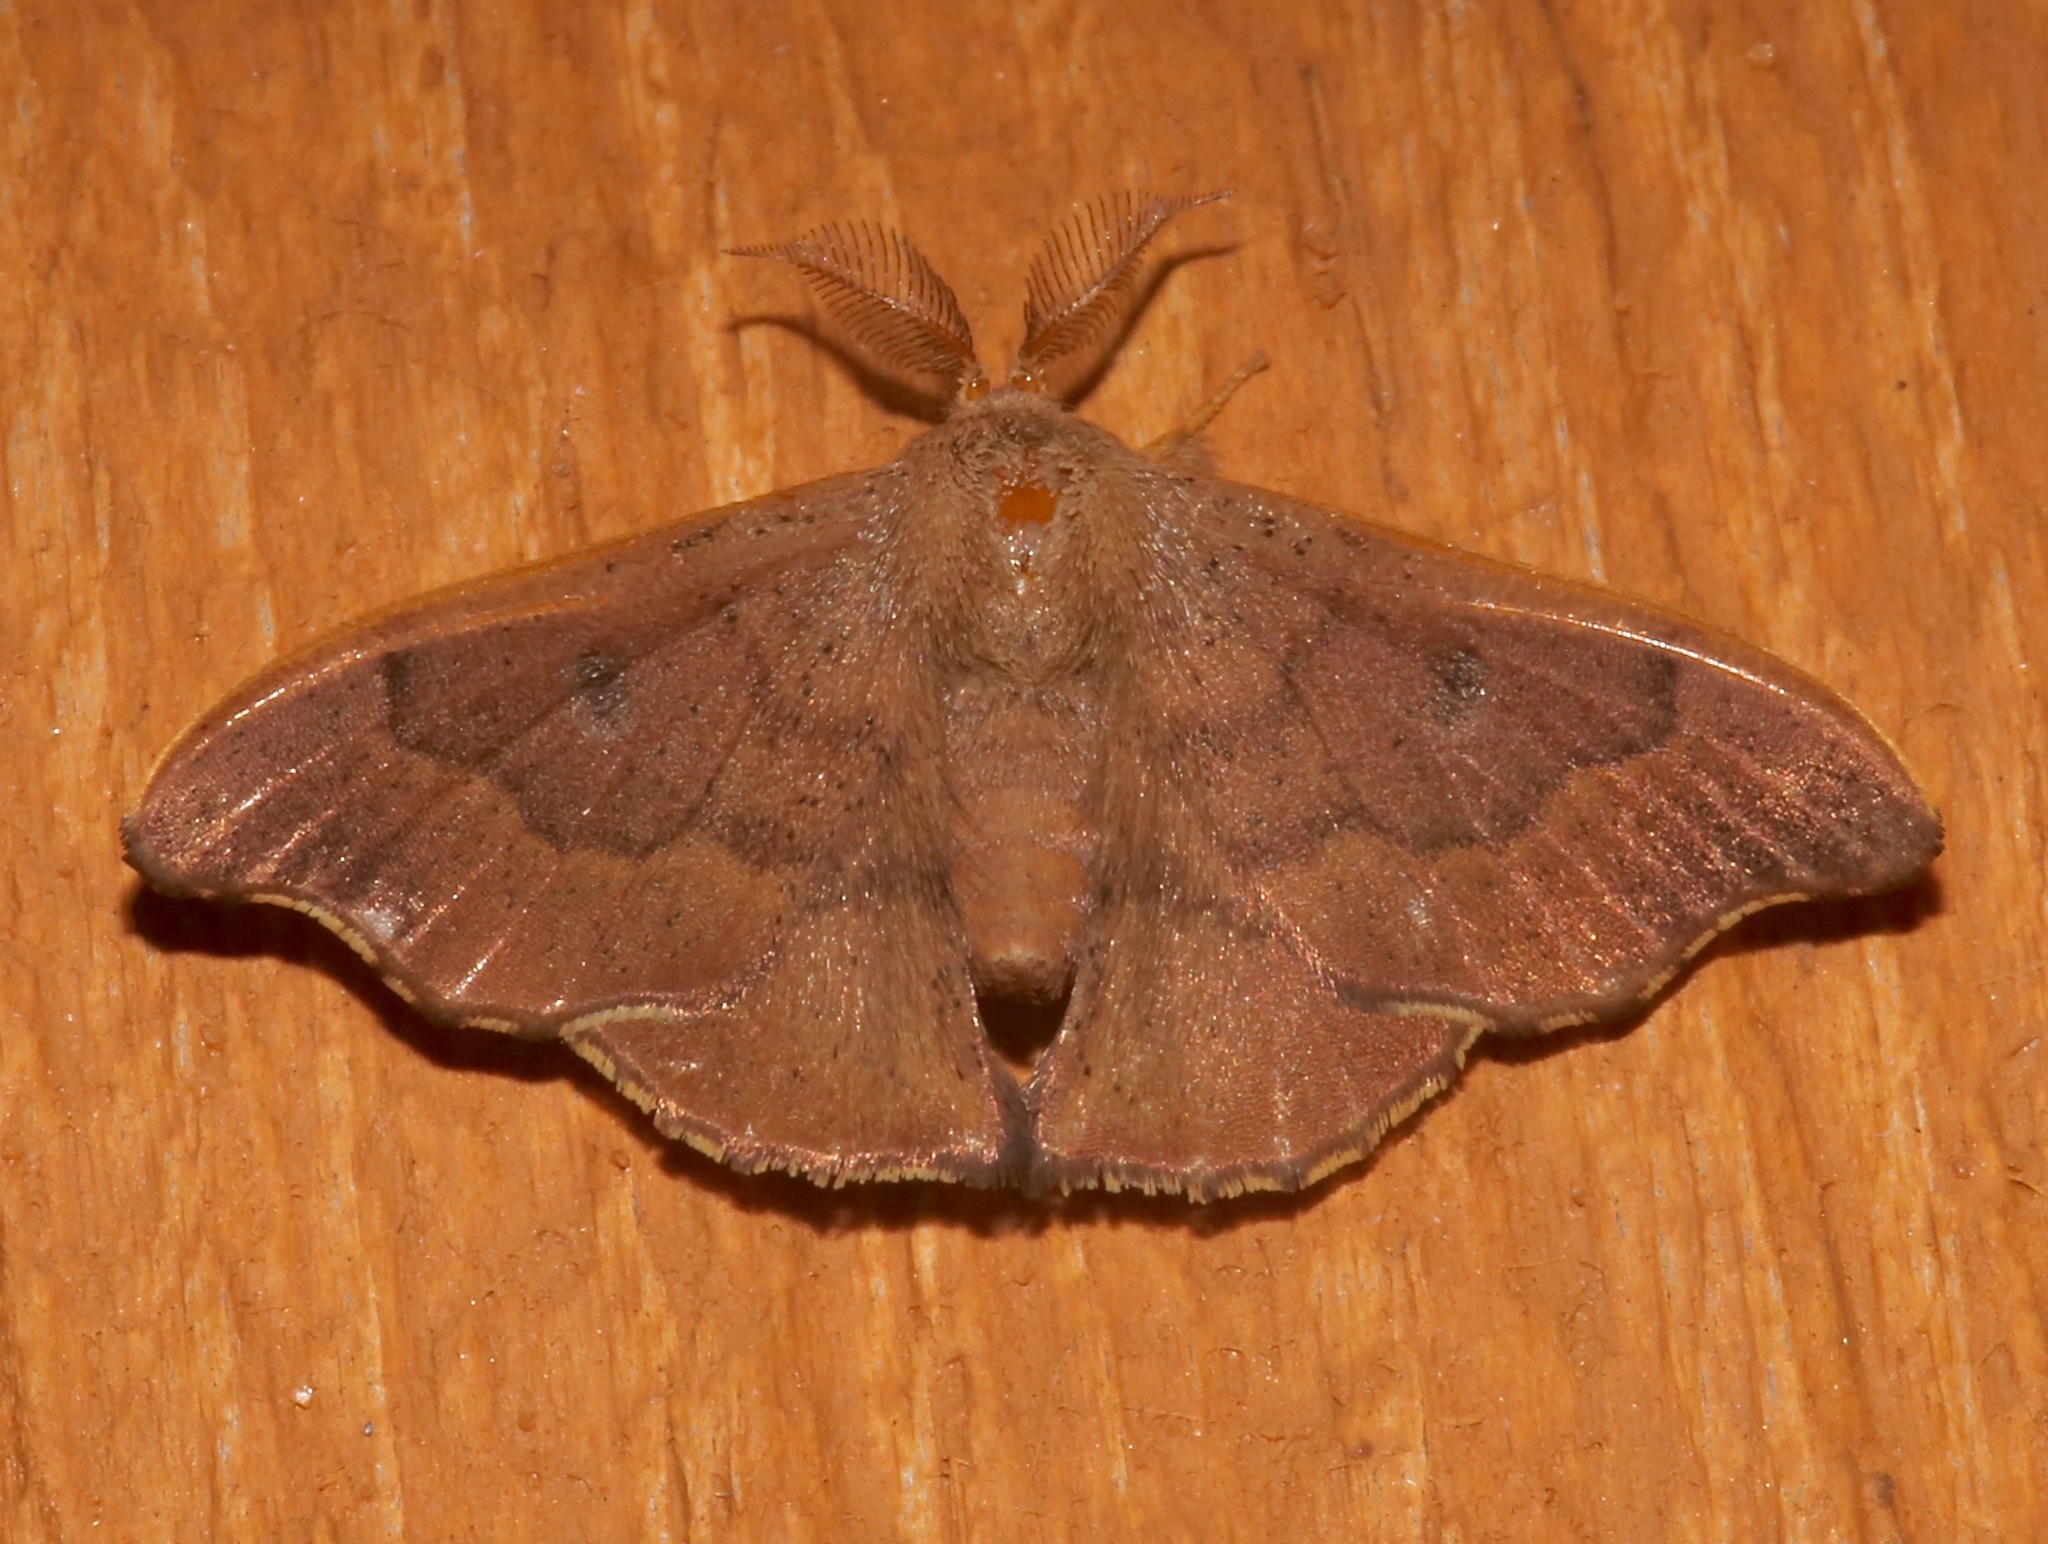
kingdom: Animalia
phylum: Arthropoda
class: Insecta
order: Lepidoptera
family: Mimallonidae
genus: Lacosoma
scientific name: Lacosoma chiridota
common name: Scalloped sack-bearer moth
